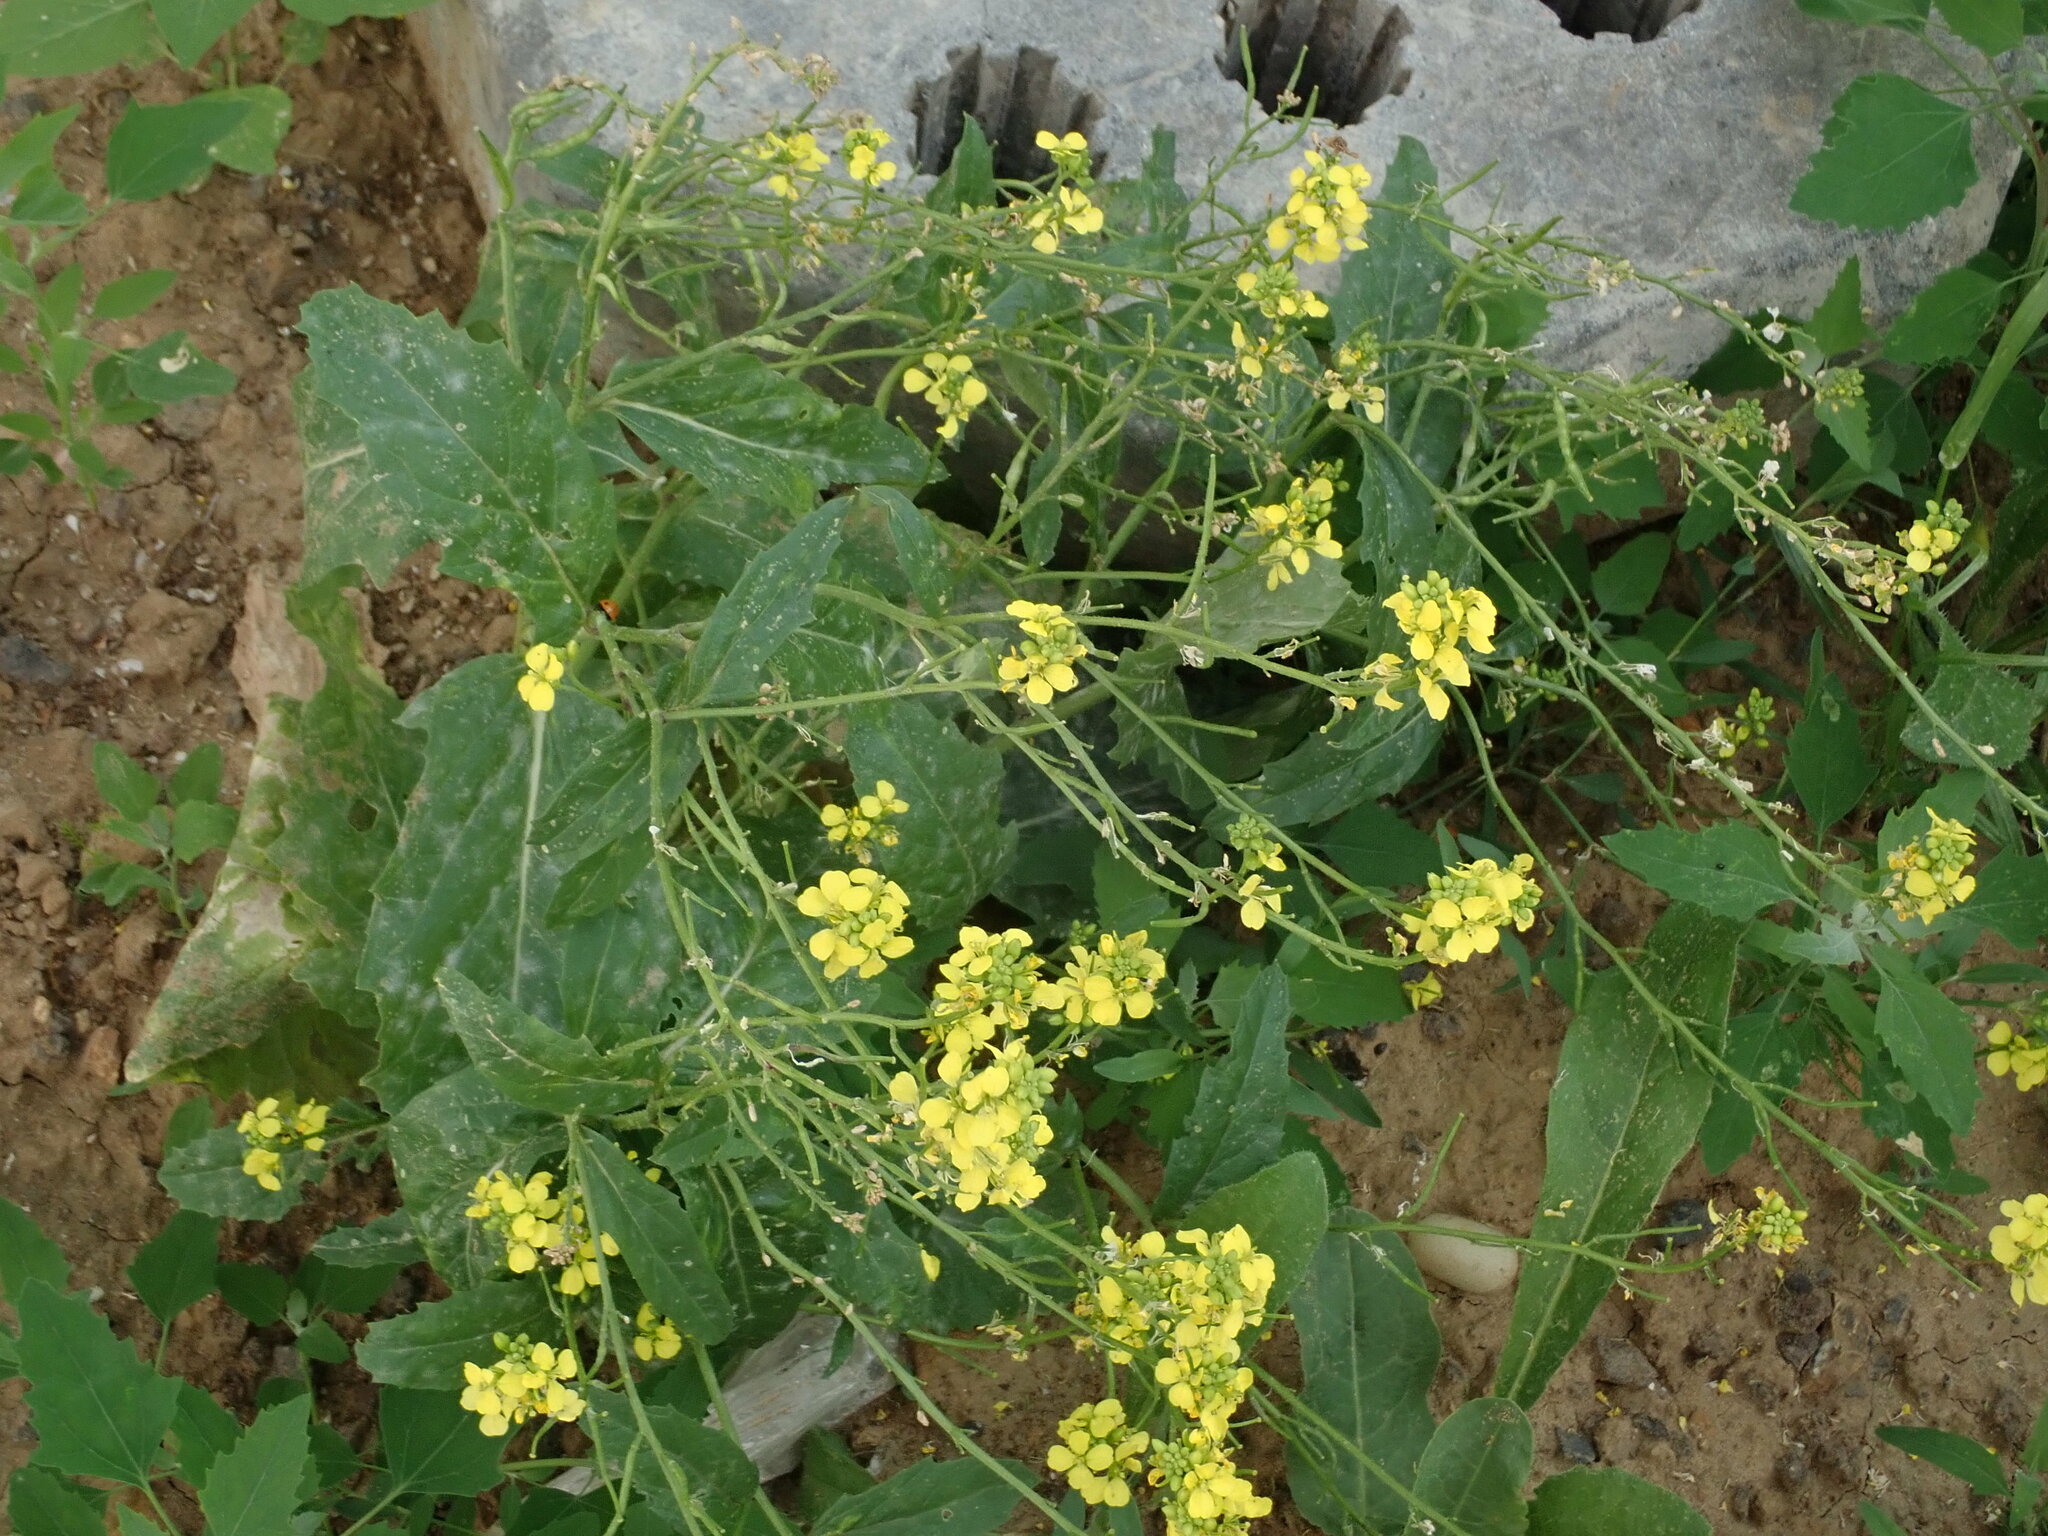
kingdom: Plantae
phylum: Tracheophyta
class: Magnoliopsida
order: Brassicales
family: Brassicaceae
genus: Sinapis
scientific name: Sinapis arvensis
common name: Charlock
